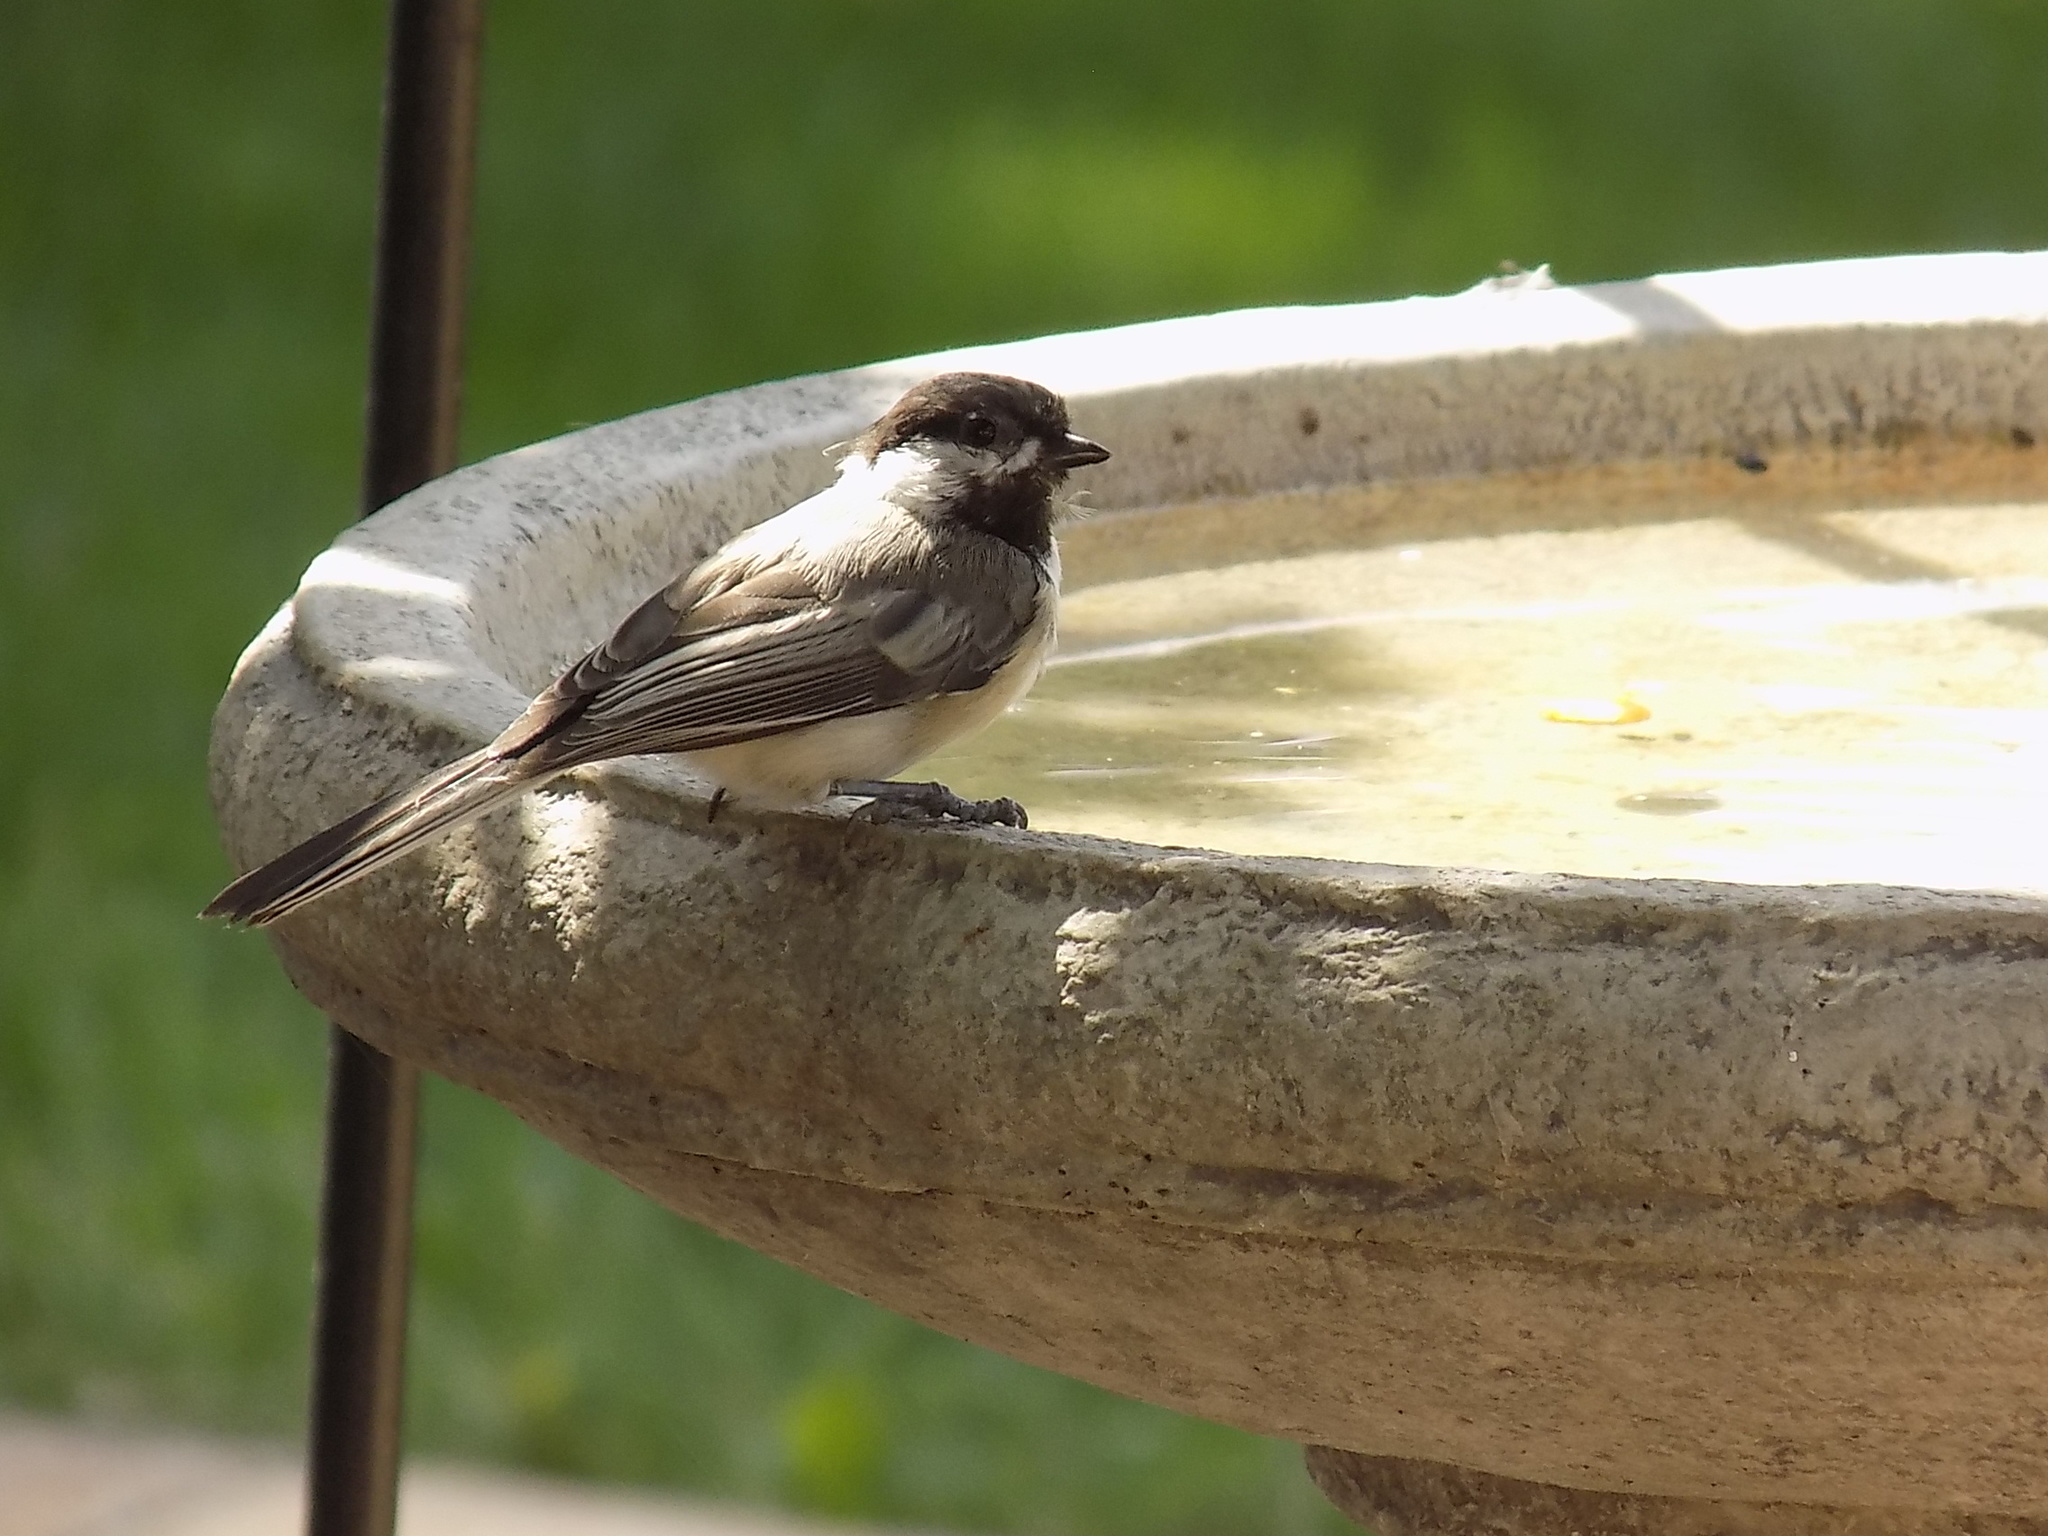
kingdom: Animalia
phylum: Chordata
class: Aves
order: Passeriformes
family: Paridae
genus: Poecile
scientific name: Poecile atricapillus
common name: Black-capped chickadee
